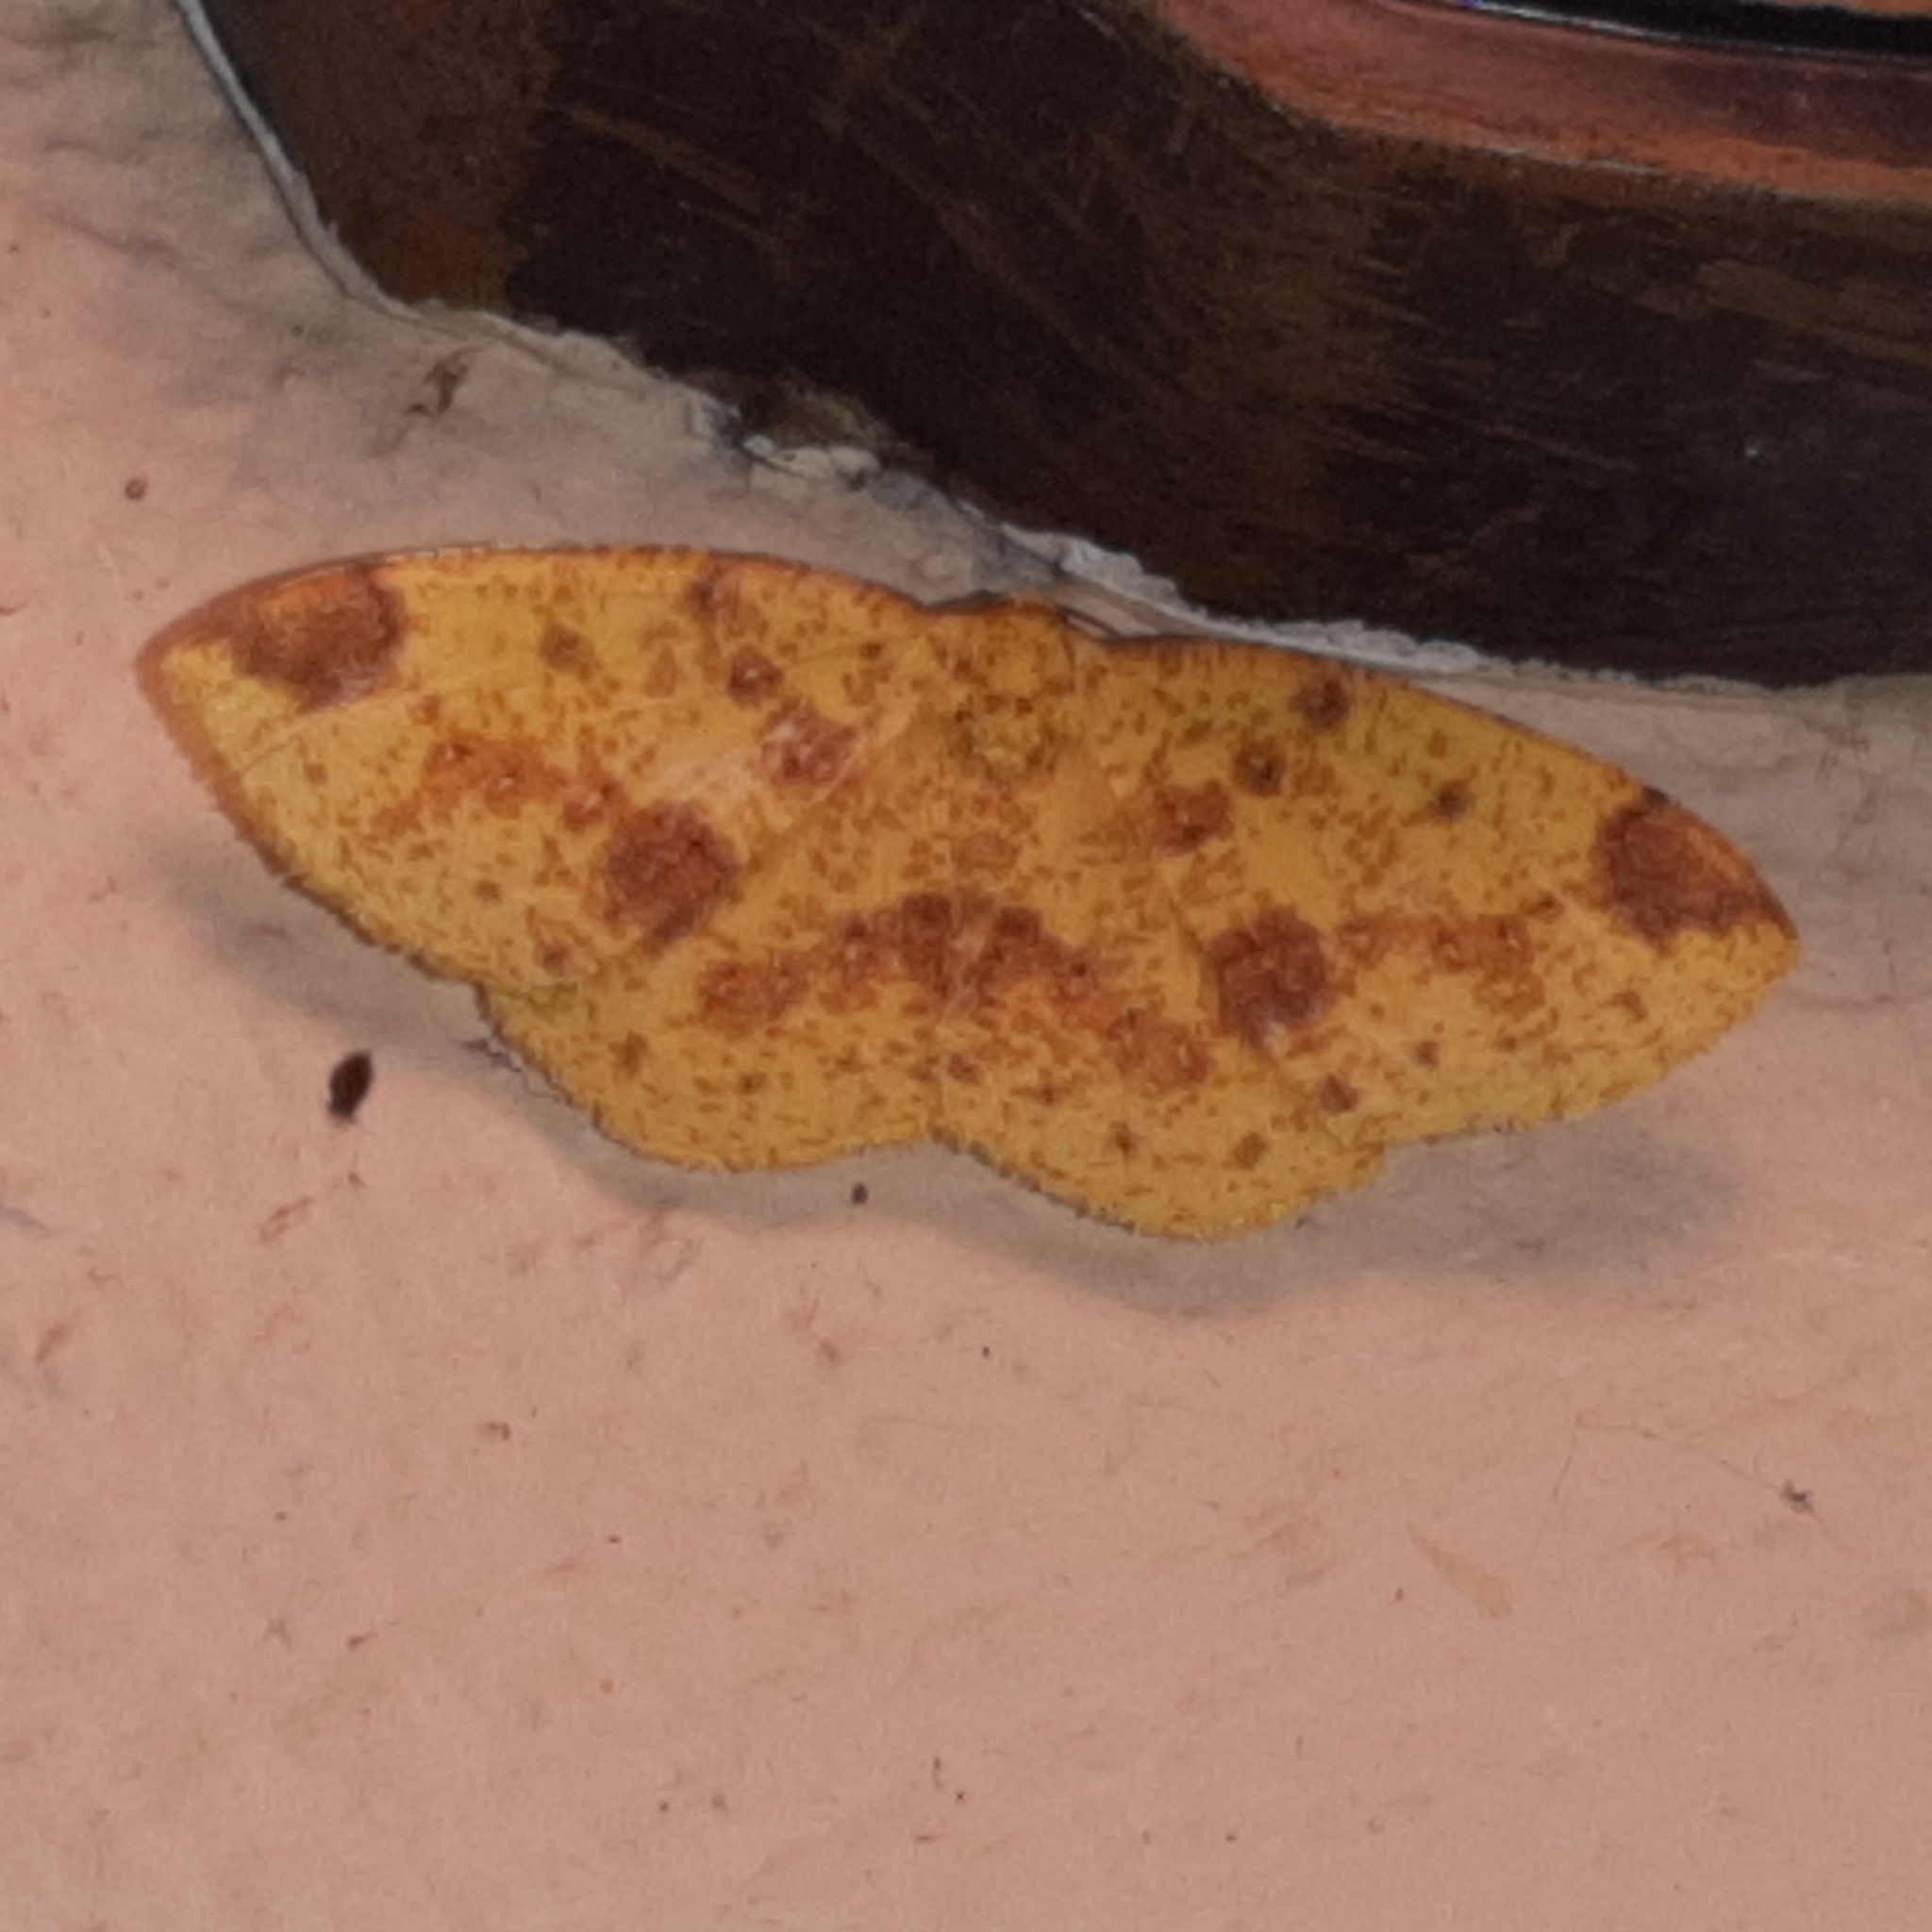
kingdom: Animalia
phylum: Arthropoda
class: Insecta
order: Lepidoptera
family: Geometridae
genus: Periclina
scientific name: Periclina apricaria
